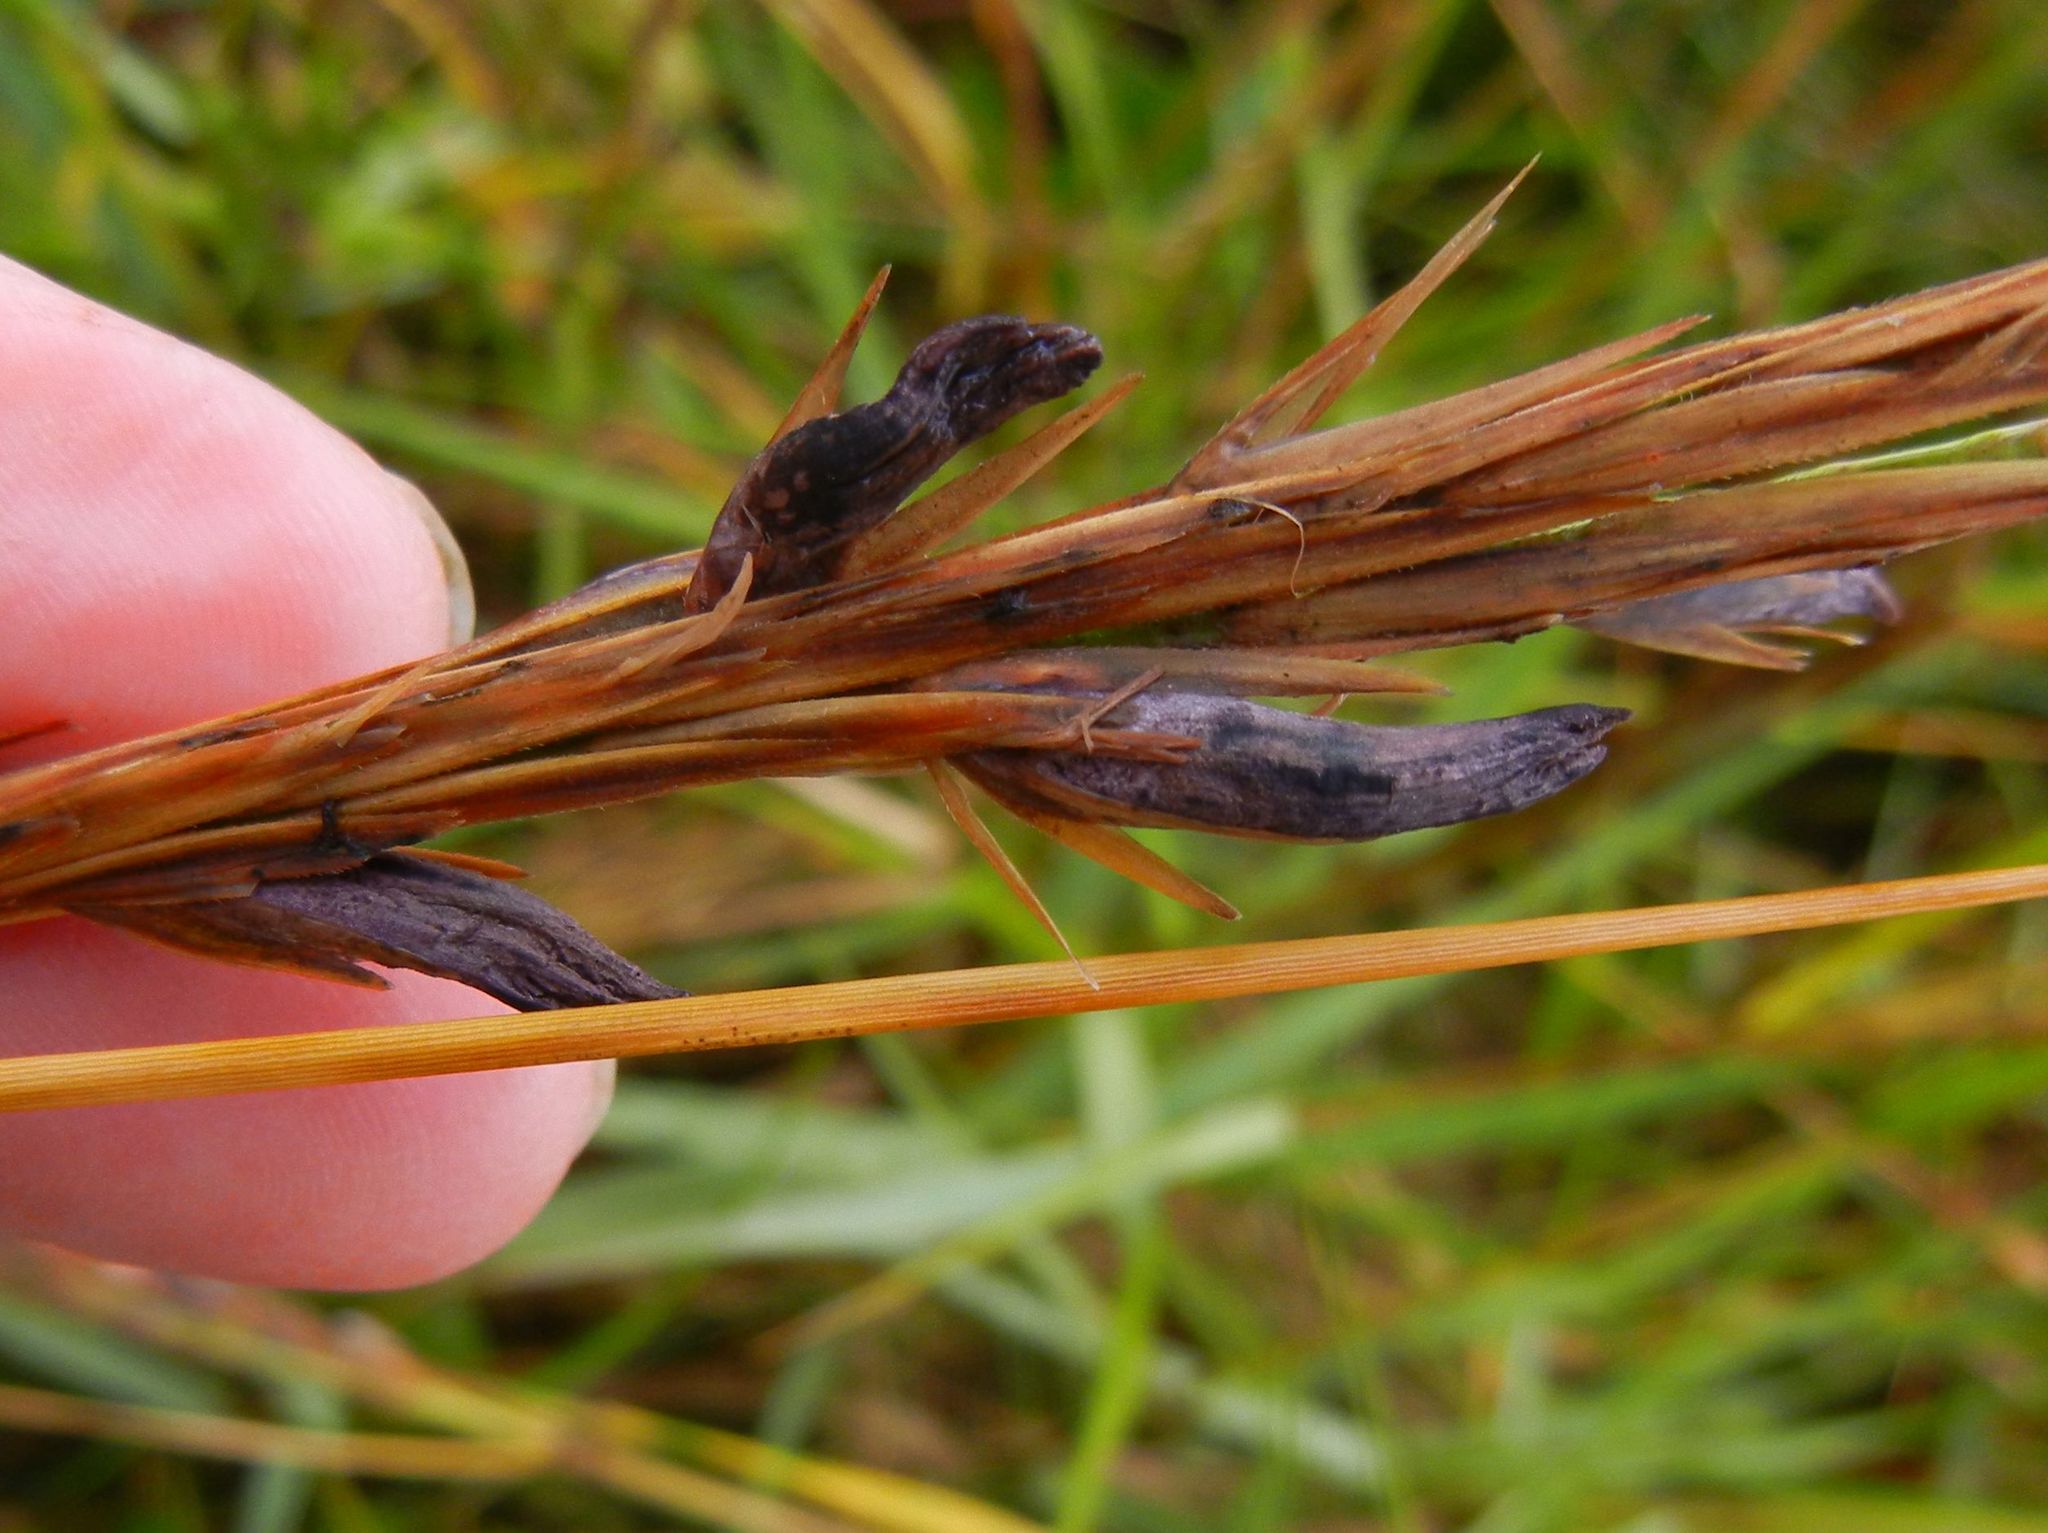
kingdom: Fungi
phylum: Ascomycota
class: Sordariomycetes
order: Hypocreales
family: Clavicipitaceae
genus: Claviceps
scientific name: Claviceps purpurea
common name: Rye ergot
